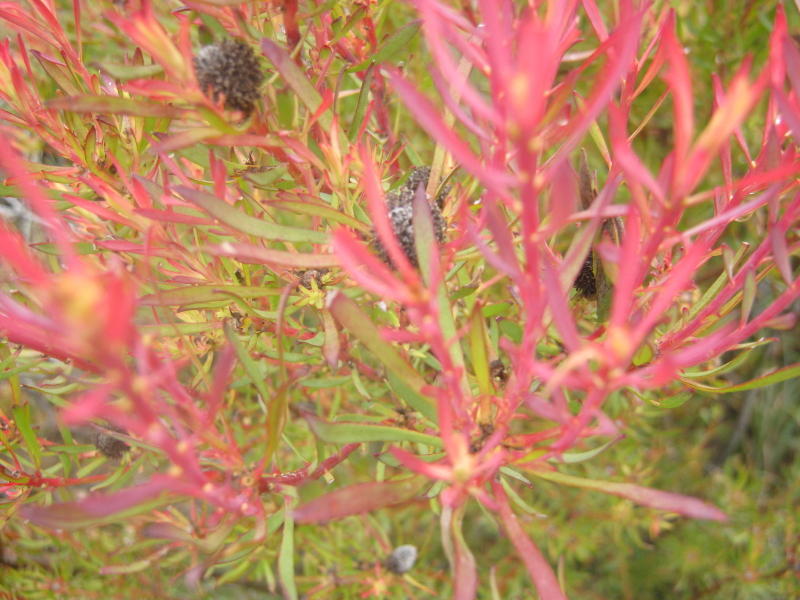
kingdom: Plantae
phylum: Tracheophyta
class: Magnoliopsida
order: Proteales
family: Proteaceae
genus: Leucadendron
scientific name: Leucadendron salignum
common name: Common sunshine conebush
